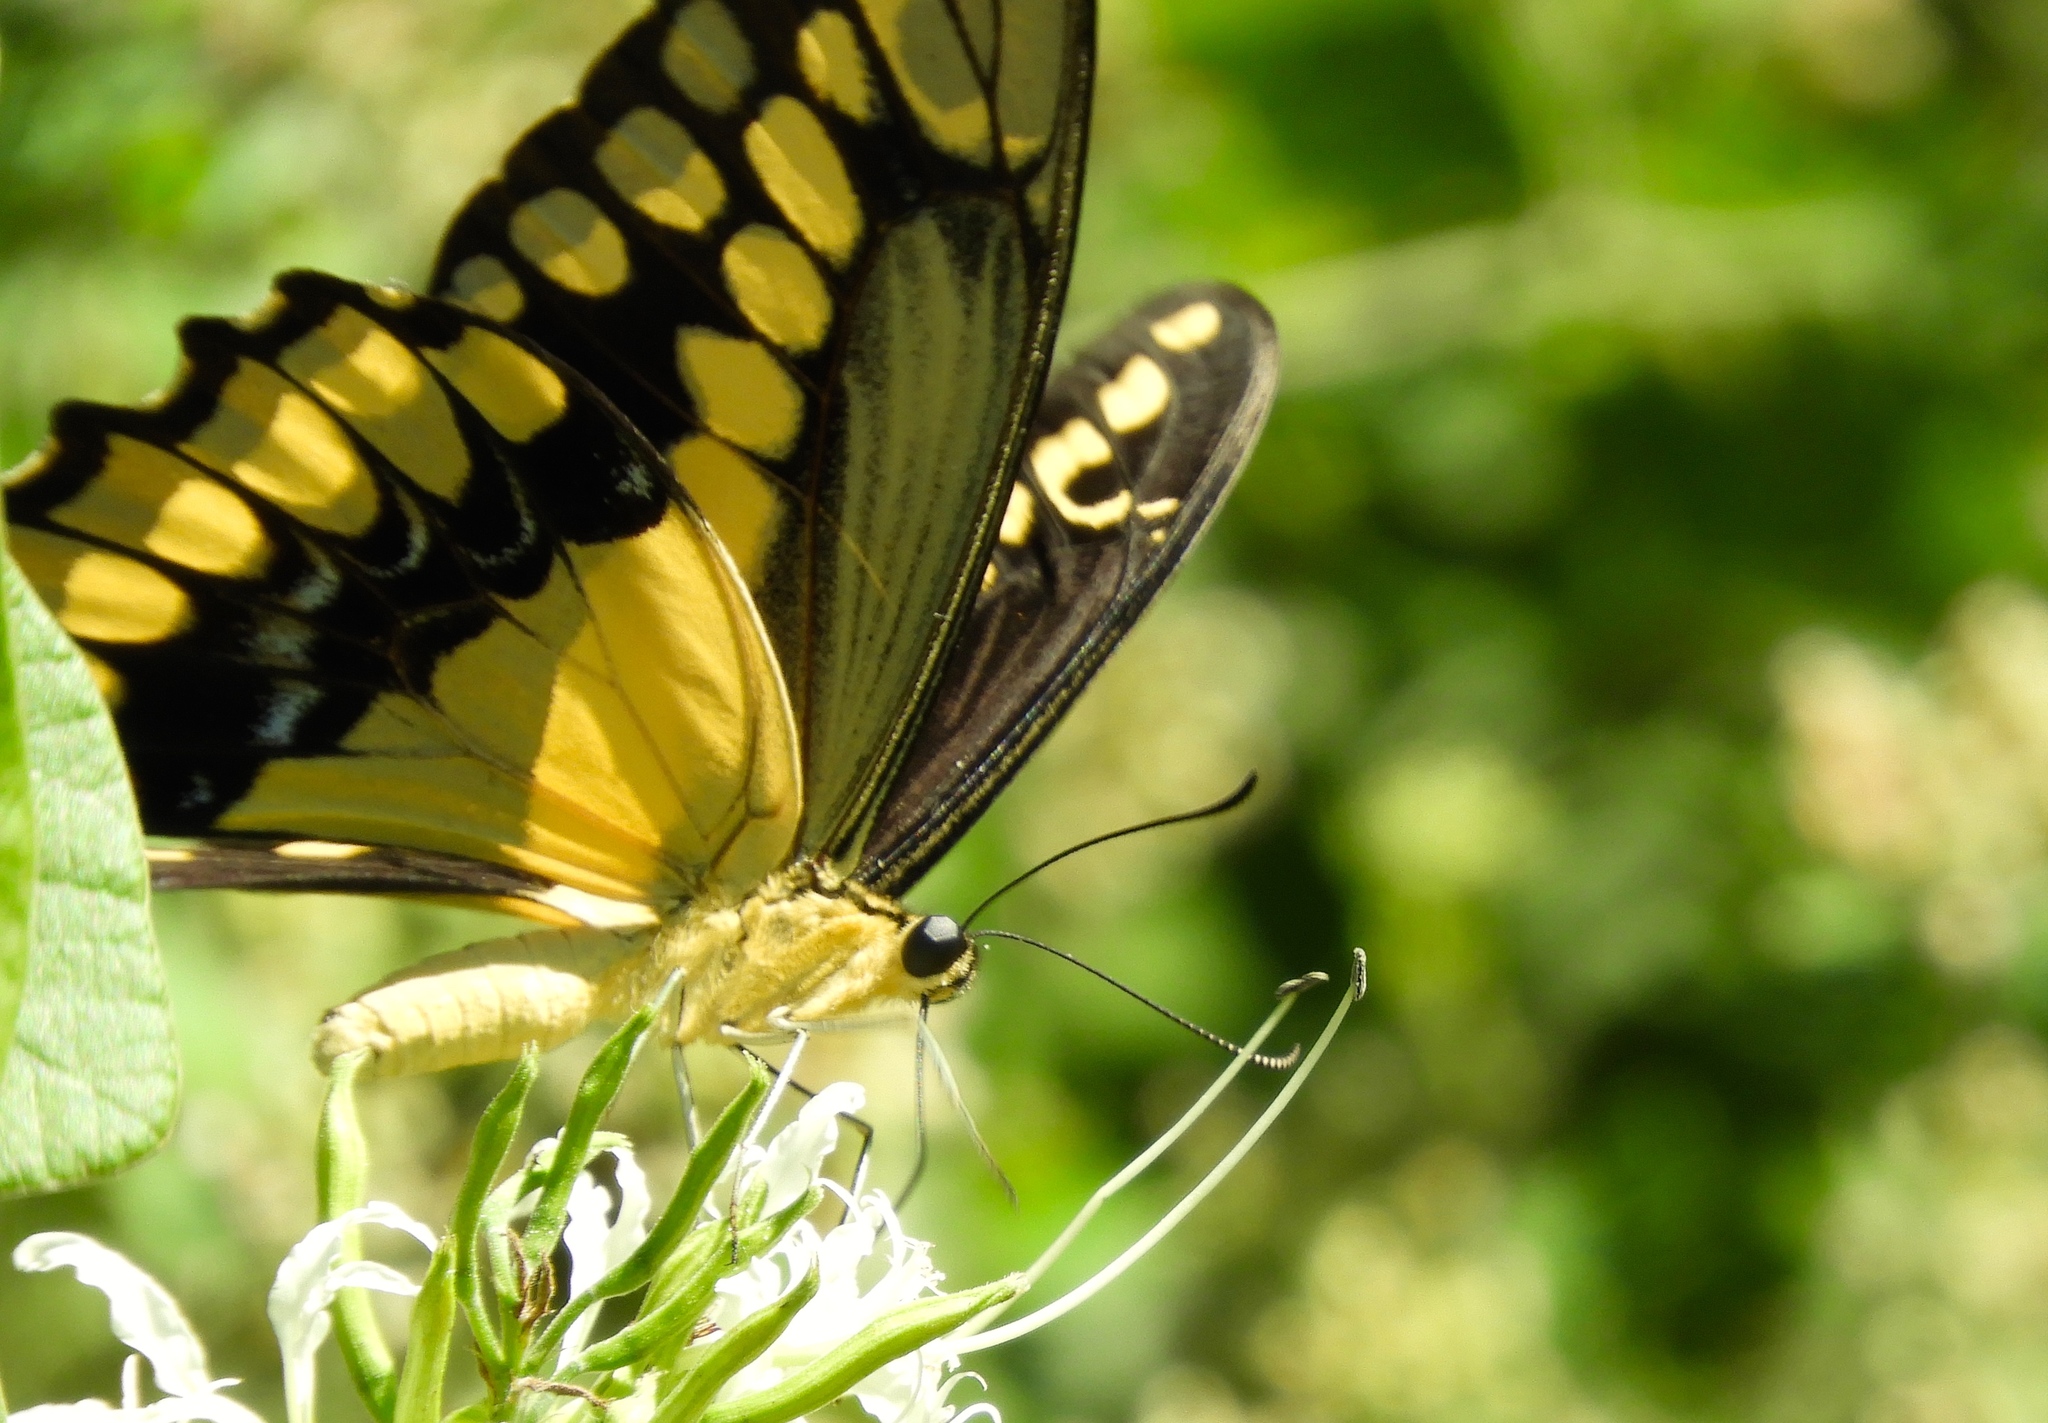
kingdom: Animalia
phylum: Arthropoda
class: Insecta
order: Lepidoptera
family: Papilionidae
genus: Papilio
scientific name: Papilio rumiko
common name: Western giant swallowtail
